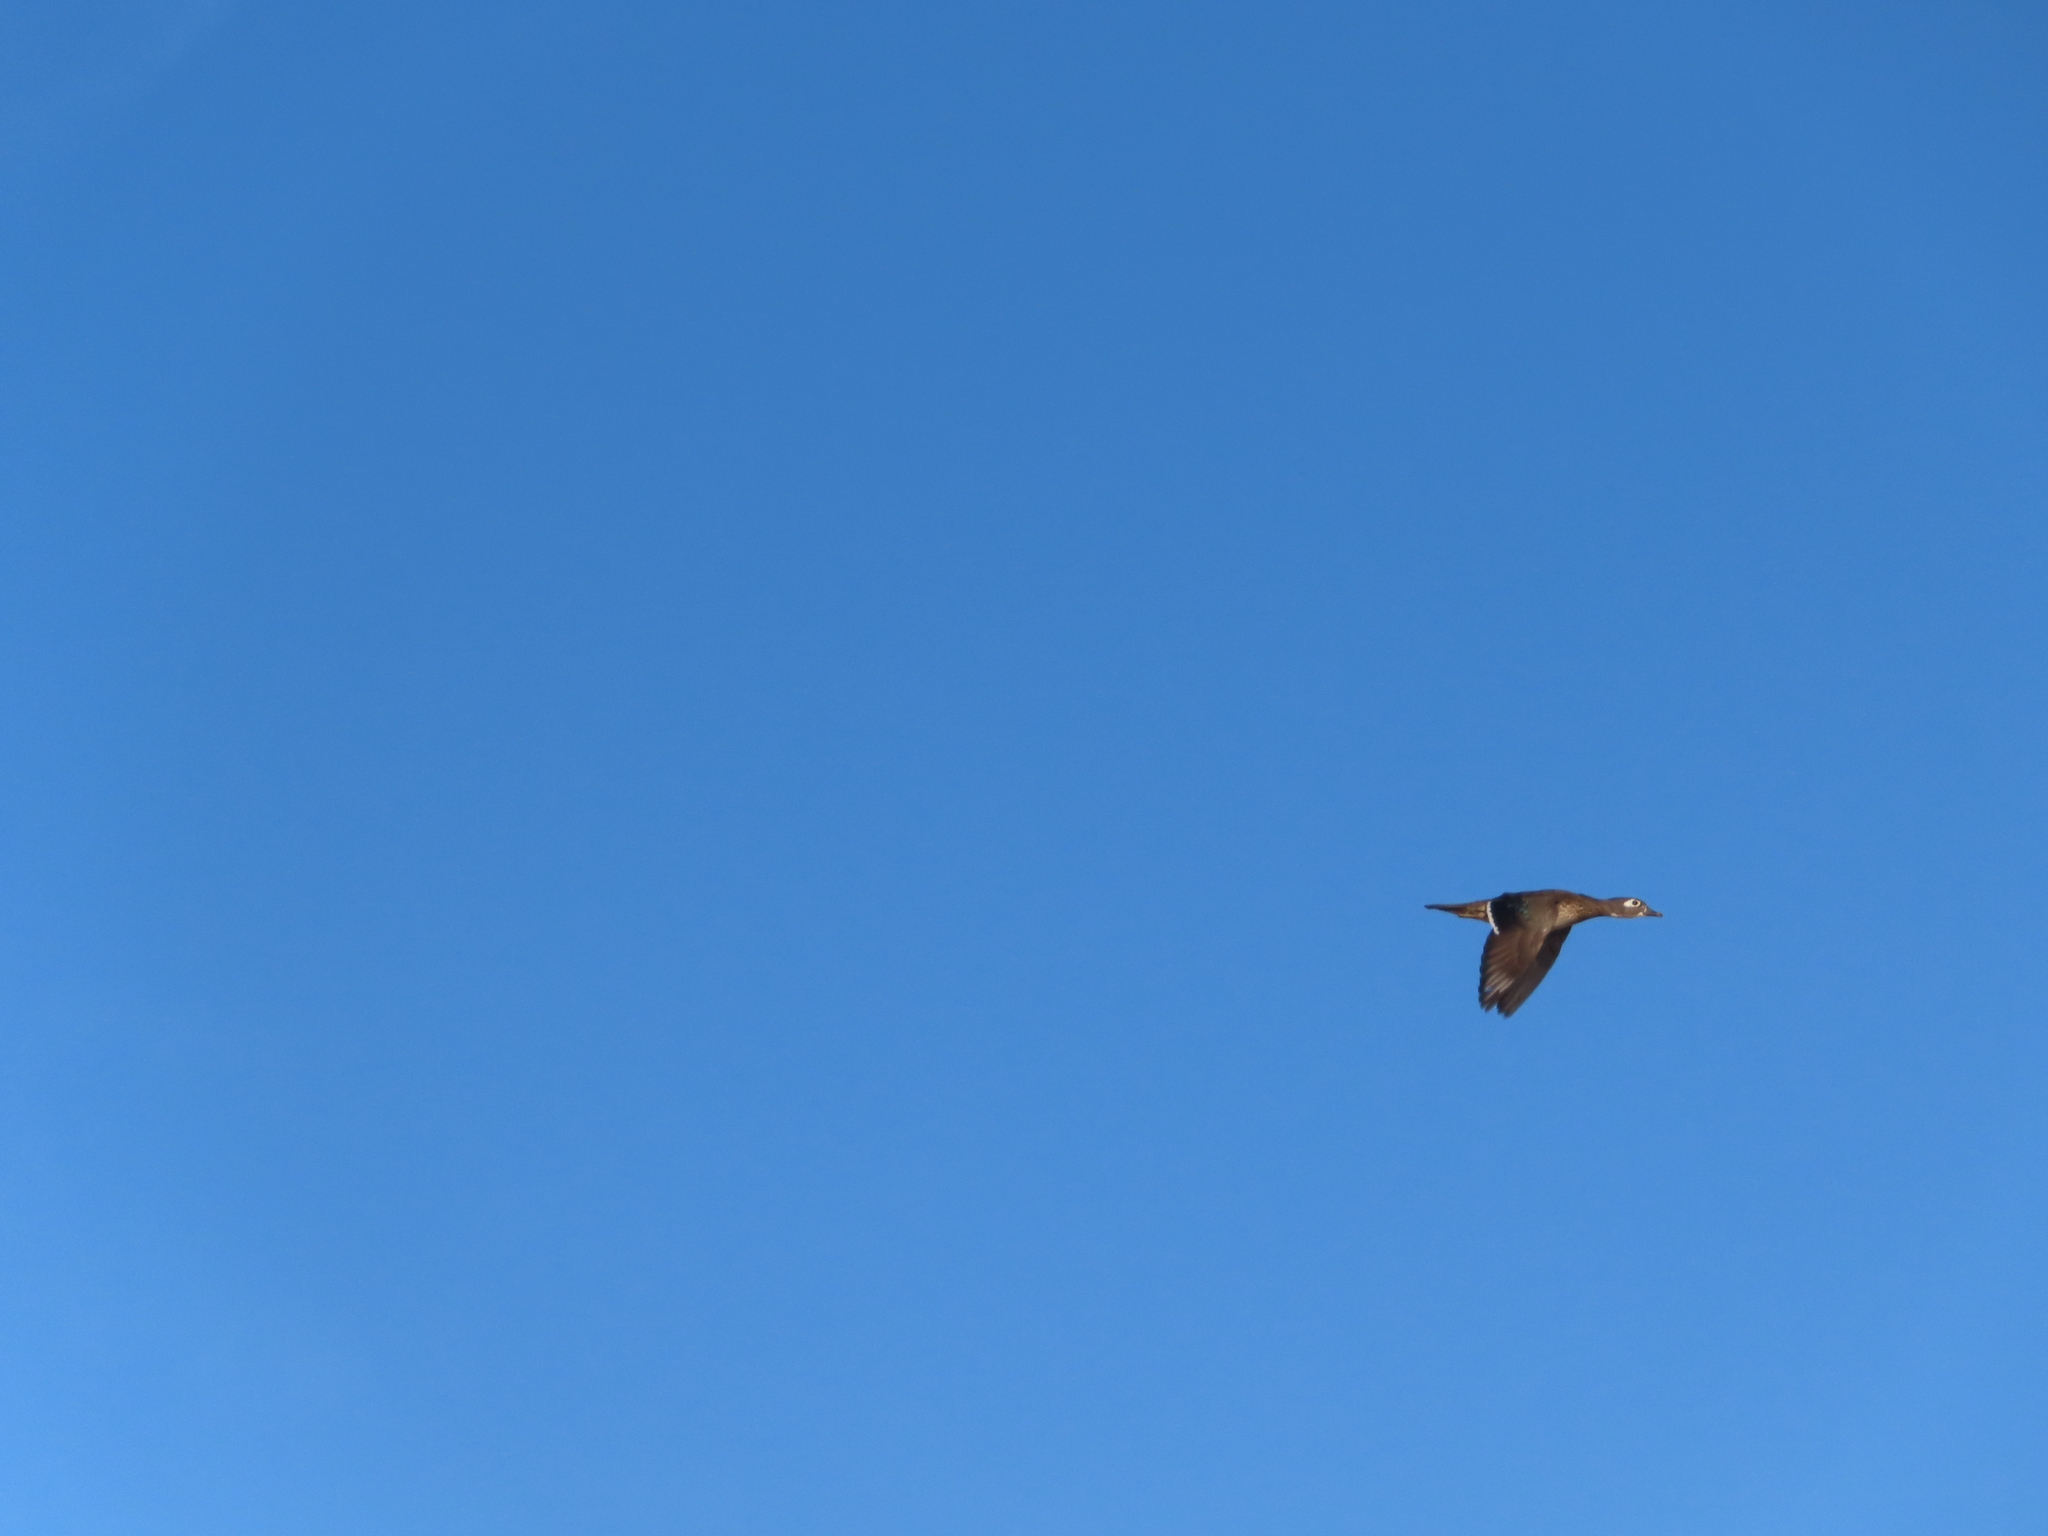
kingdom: Animalia
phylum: Chordata
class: Aves
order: Anseriformes
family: Anatidae
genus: Aix
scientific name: Aix sponsa
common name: Wood duck
